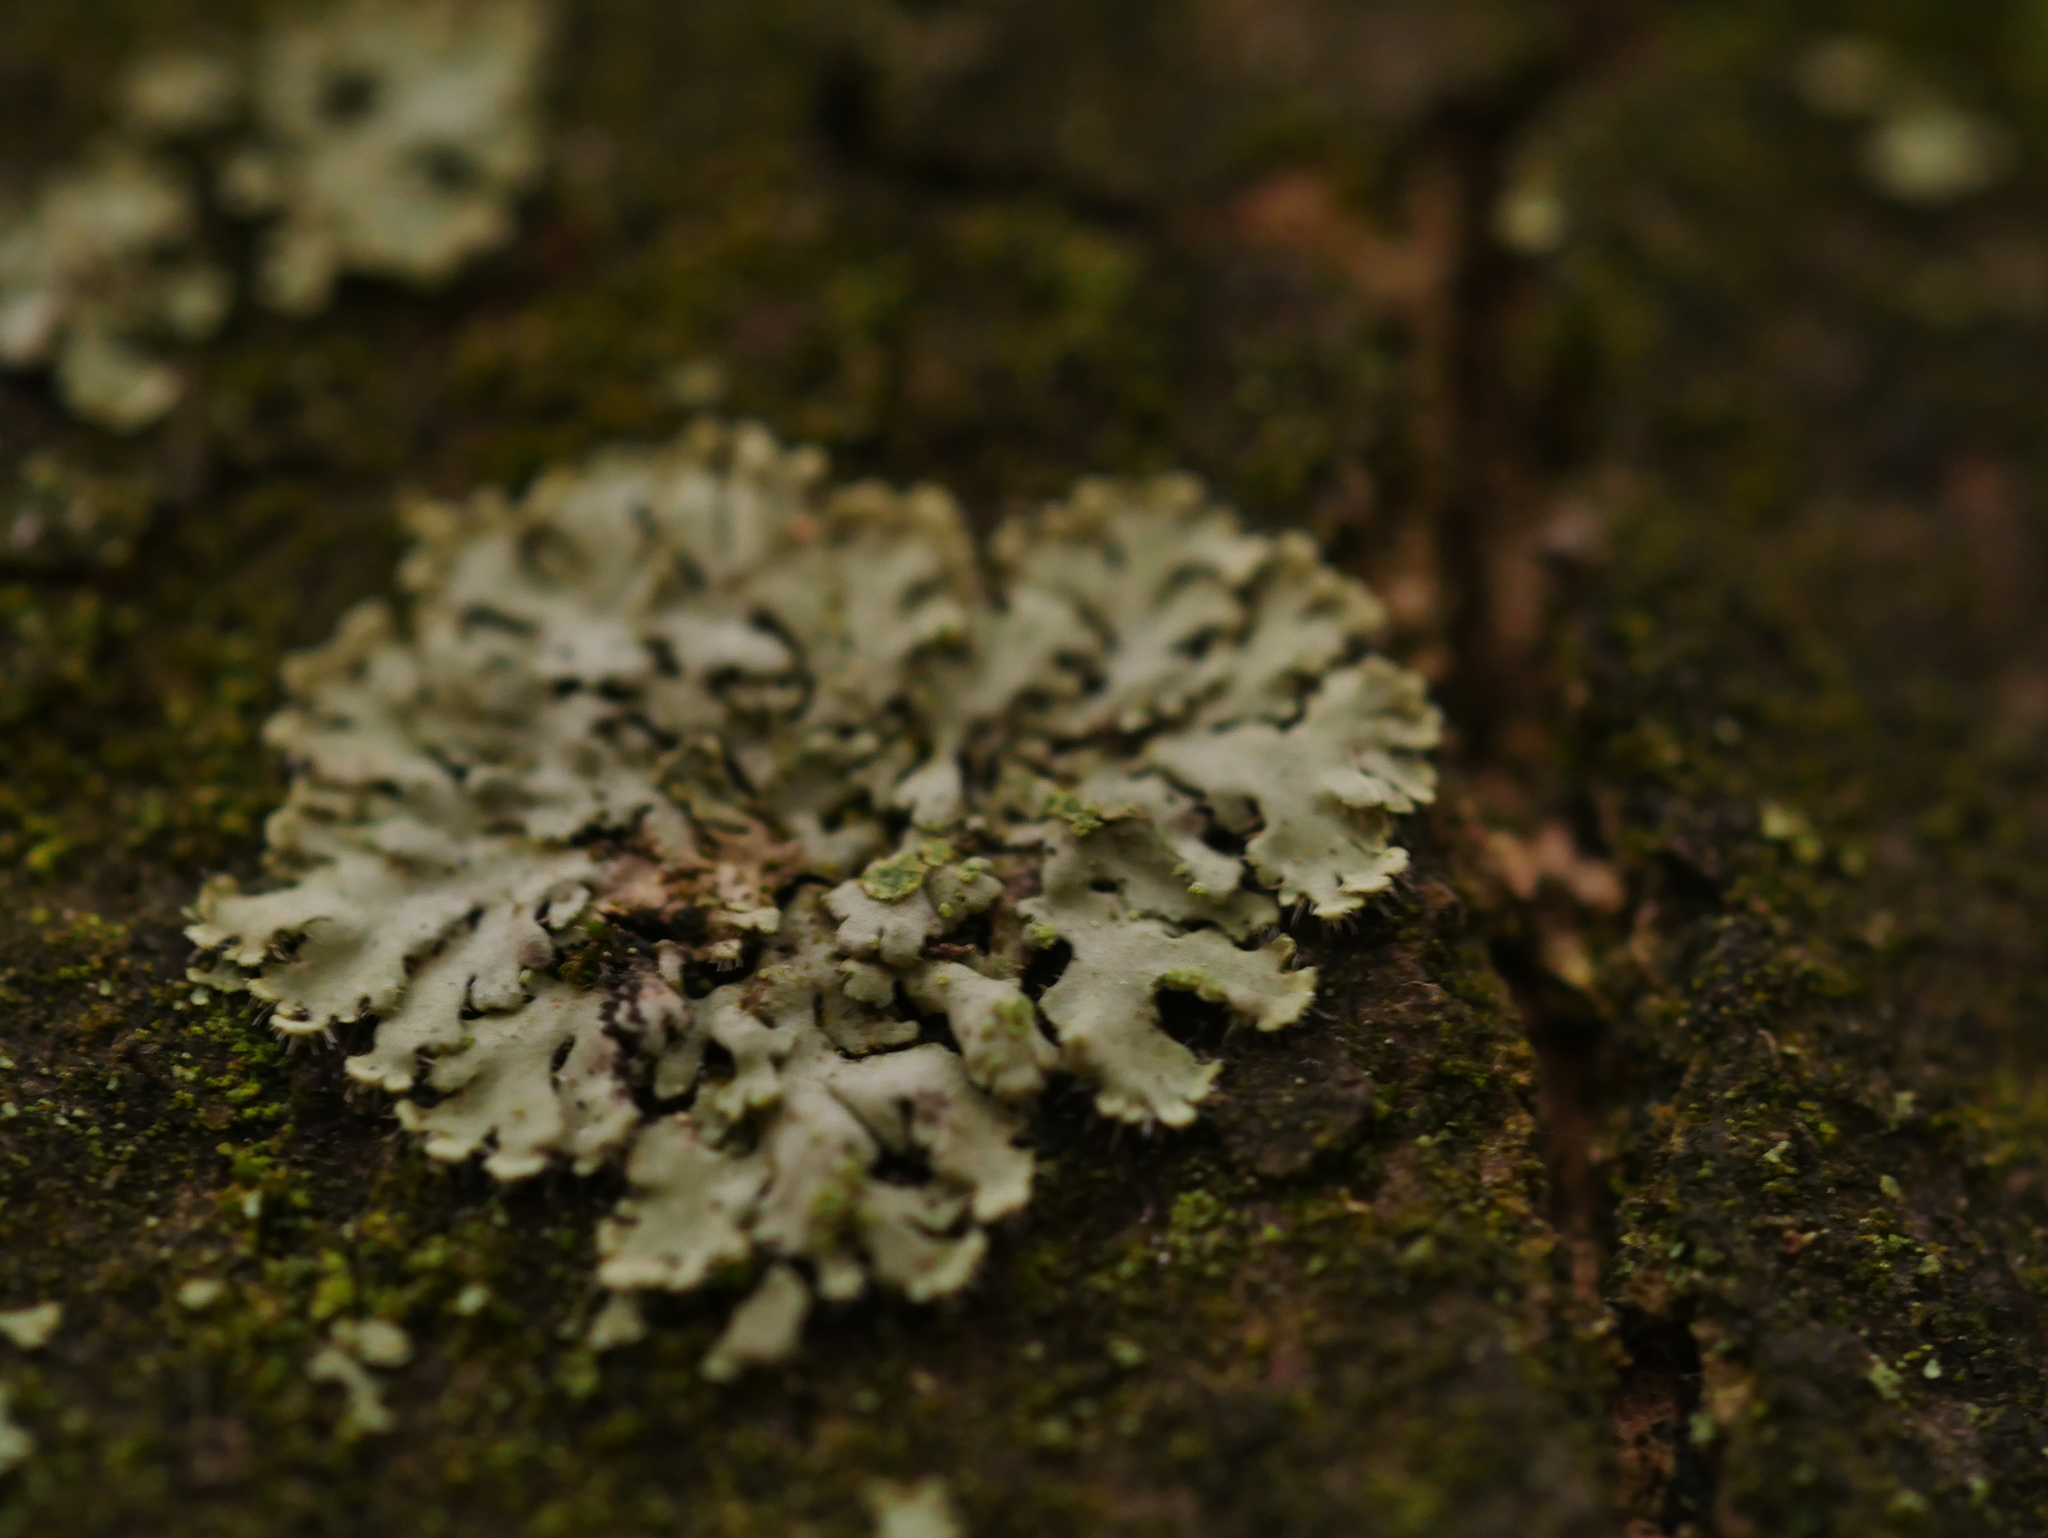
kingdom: Fungi
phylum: Ascomycota
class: Lecanoromycetes
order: Caliciales
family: Physciaceae
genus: Phaeophyscia
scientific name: Phaeophyscia orbicularis
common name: Mealy shadow lichen
